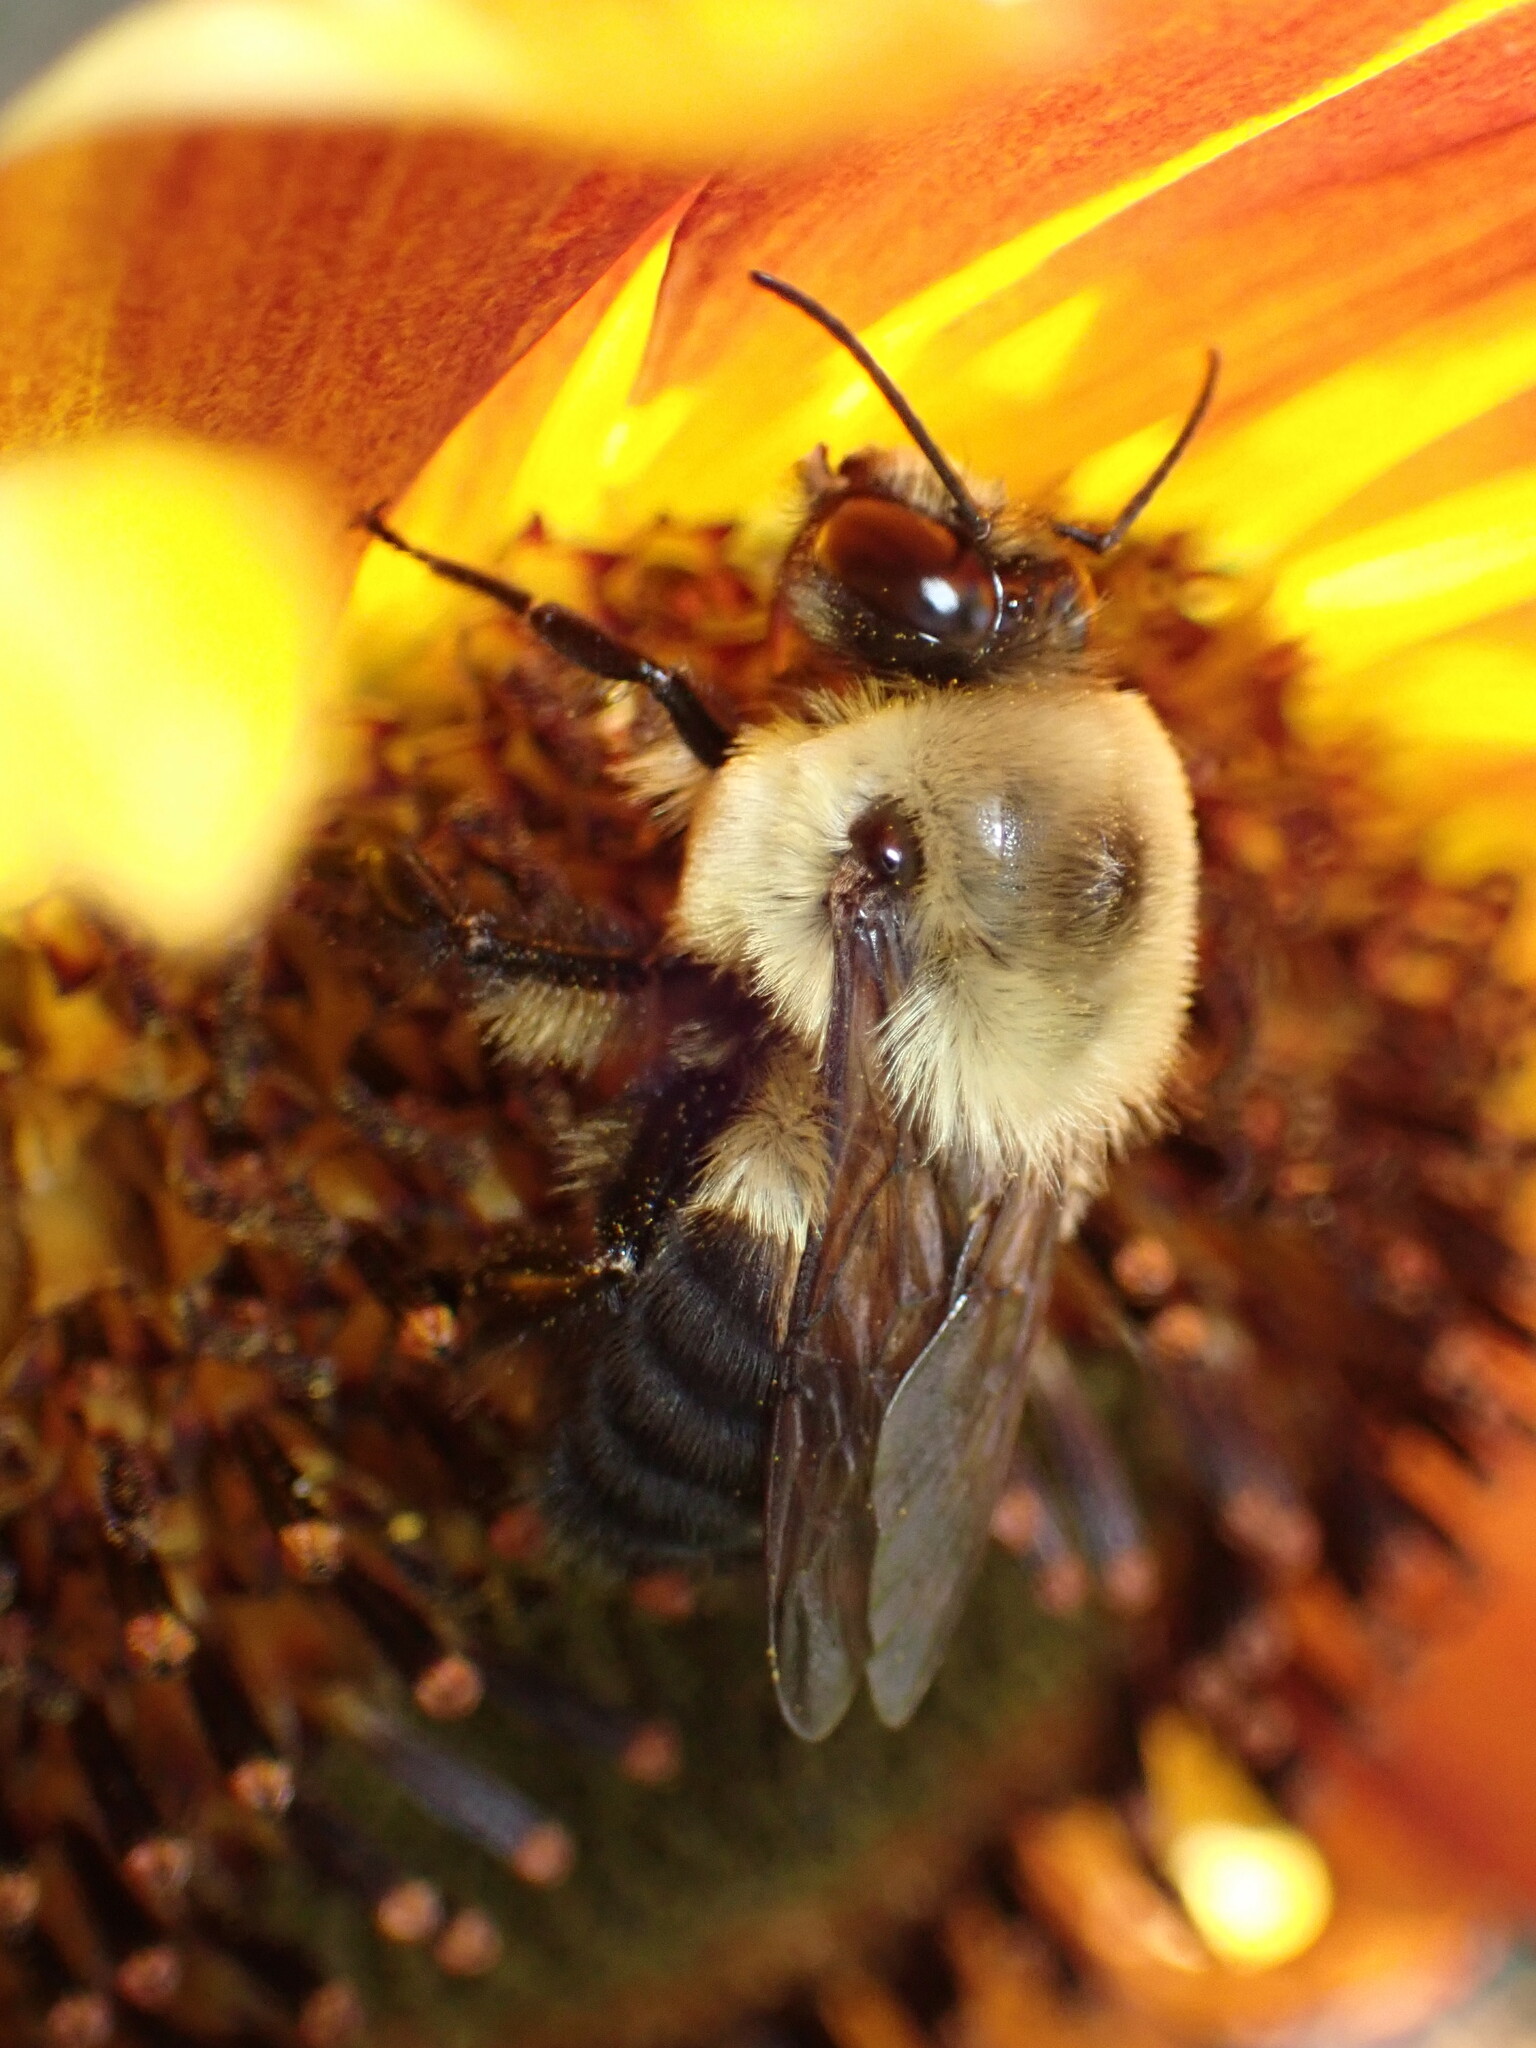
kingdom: Animalia
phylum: Arthropoda
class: Insecta
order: Hymenoptera
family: Apidae
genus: Bombus
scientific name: Bombus griseocollis
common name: Brown-belted bumble bee
